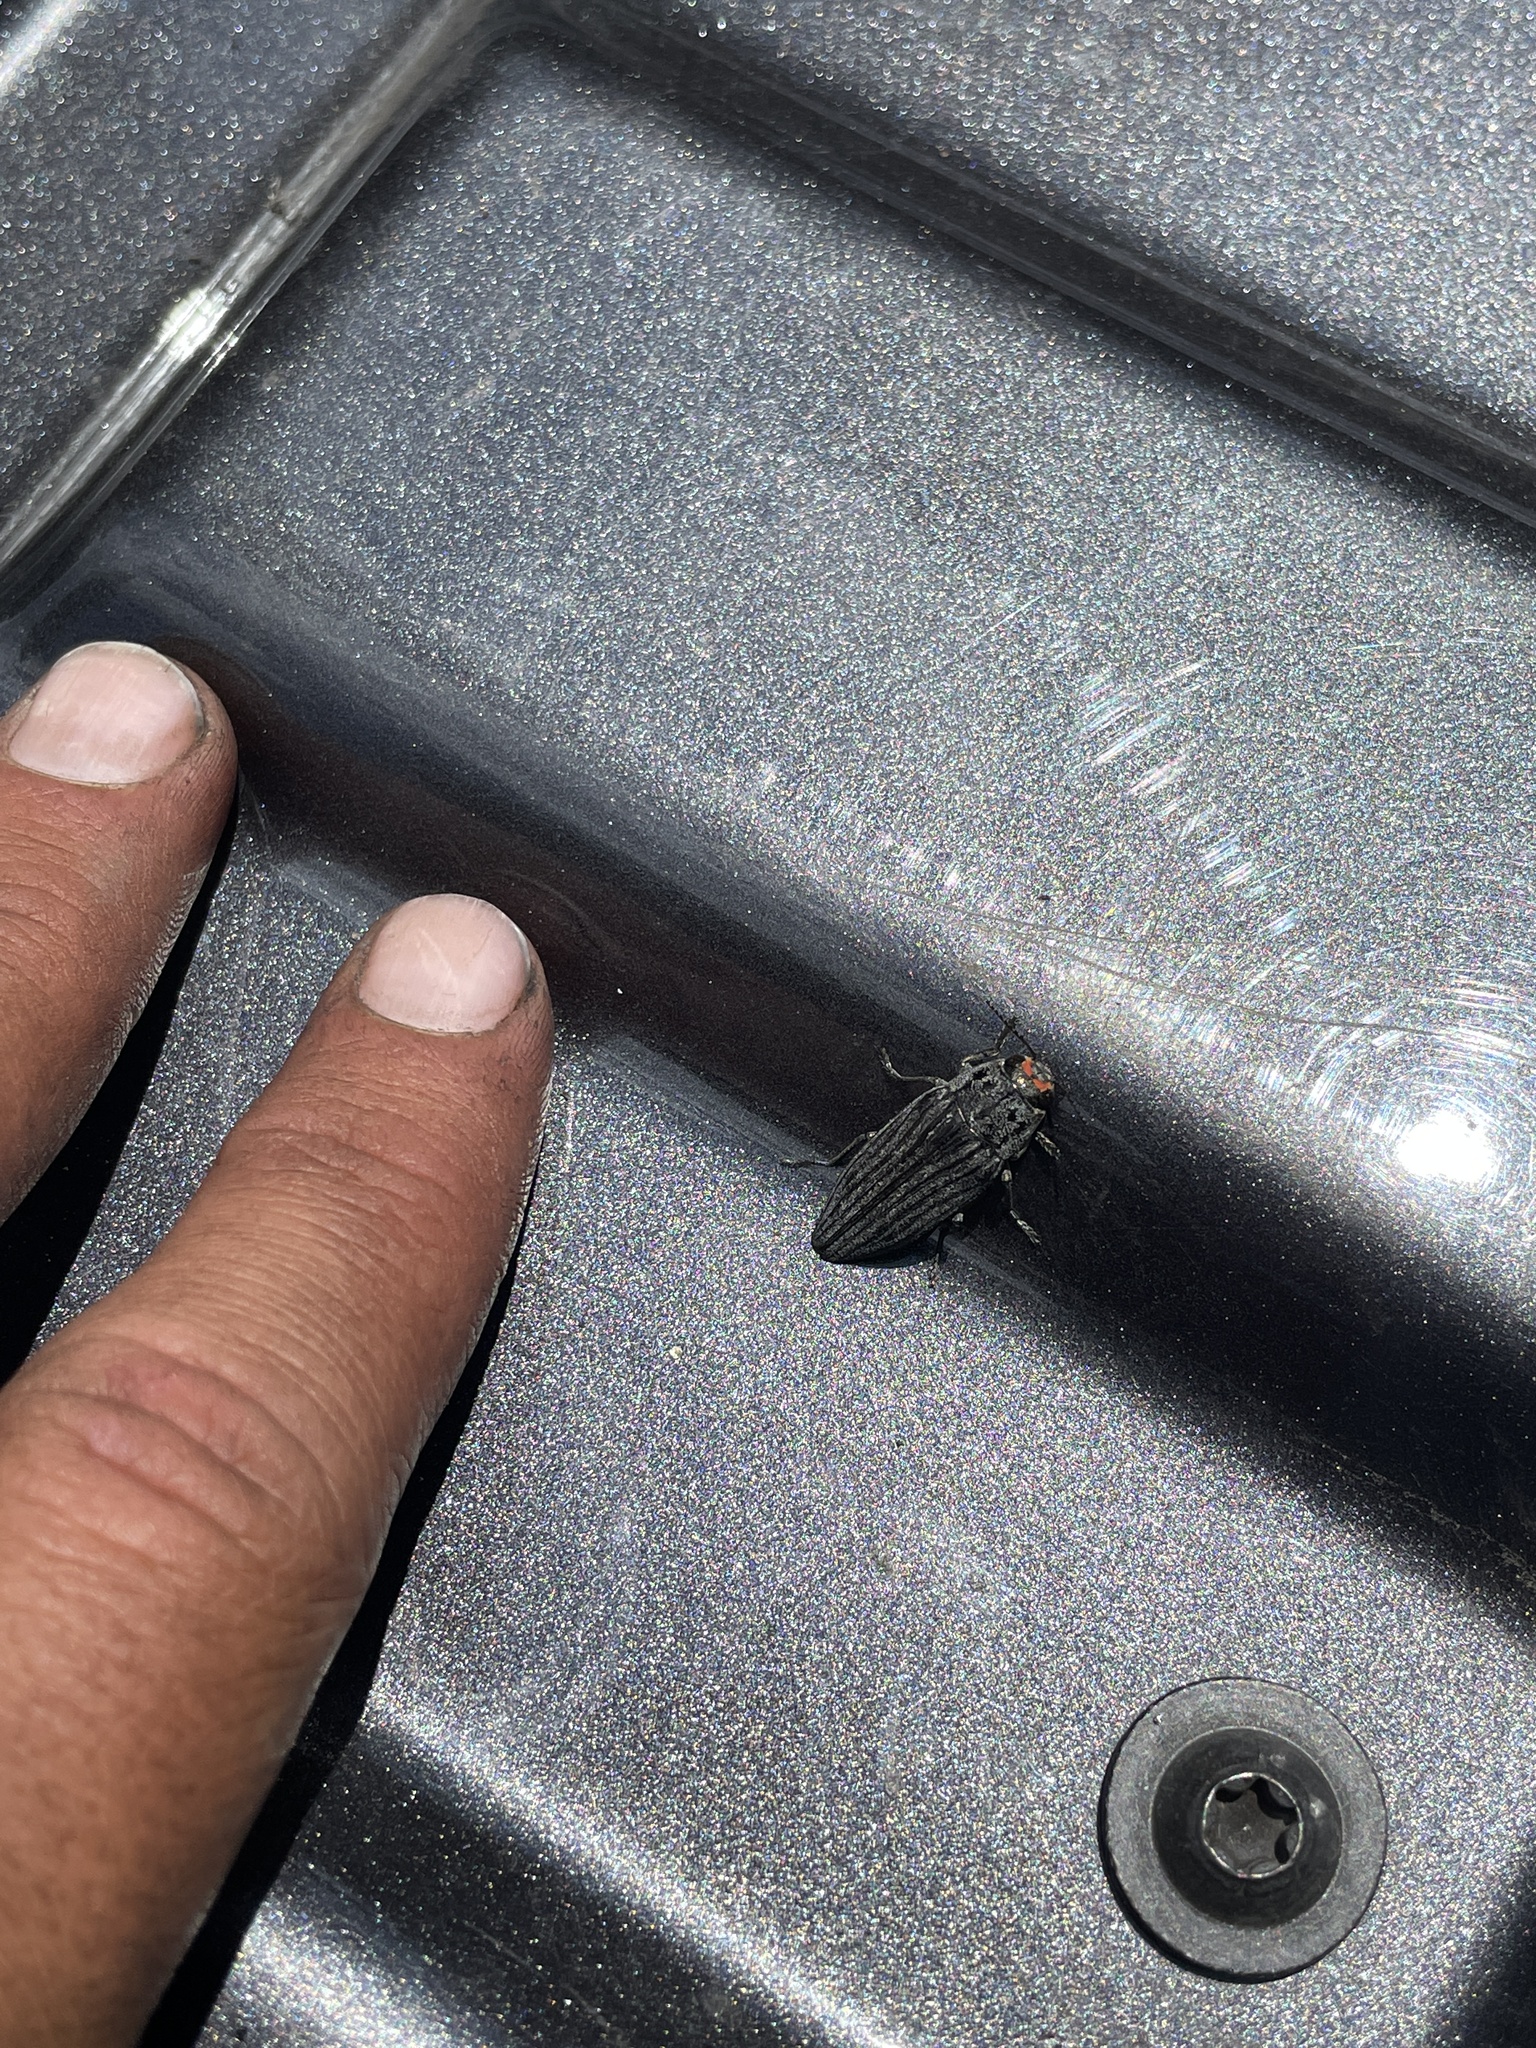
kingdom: Animalia
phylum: Arthropoda
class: Insecta
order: Coleoptera
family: Buprestidae
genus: Buprestis
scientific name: Buprestis lyrata
